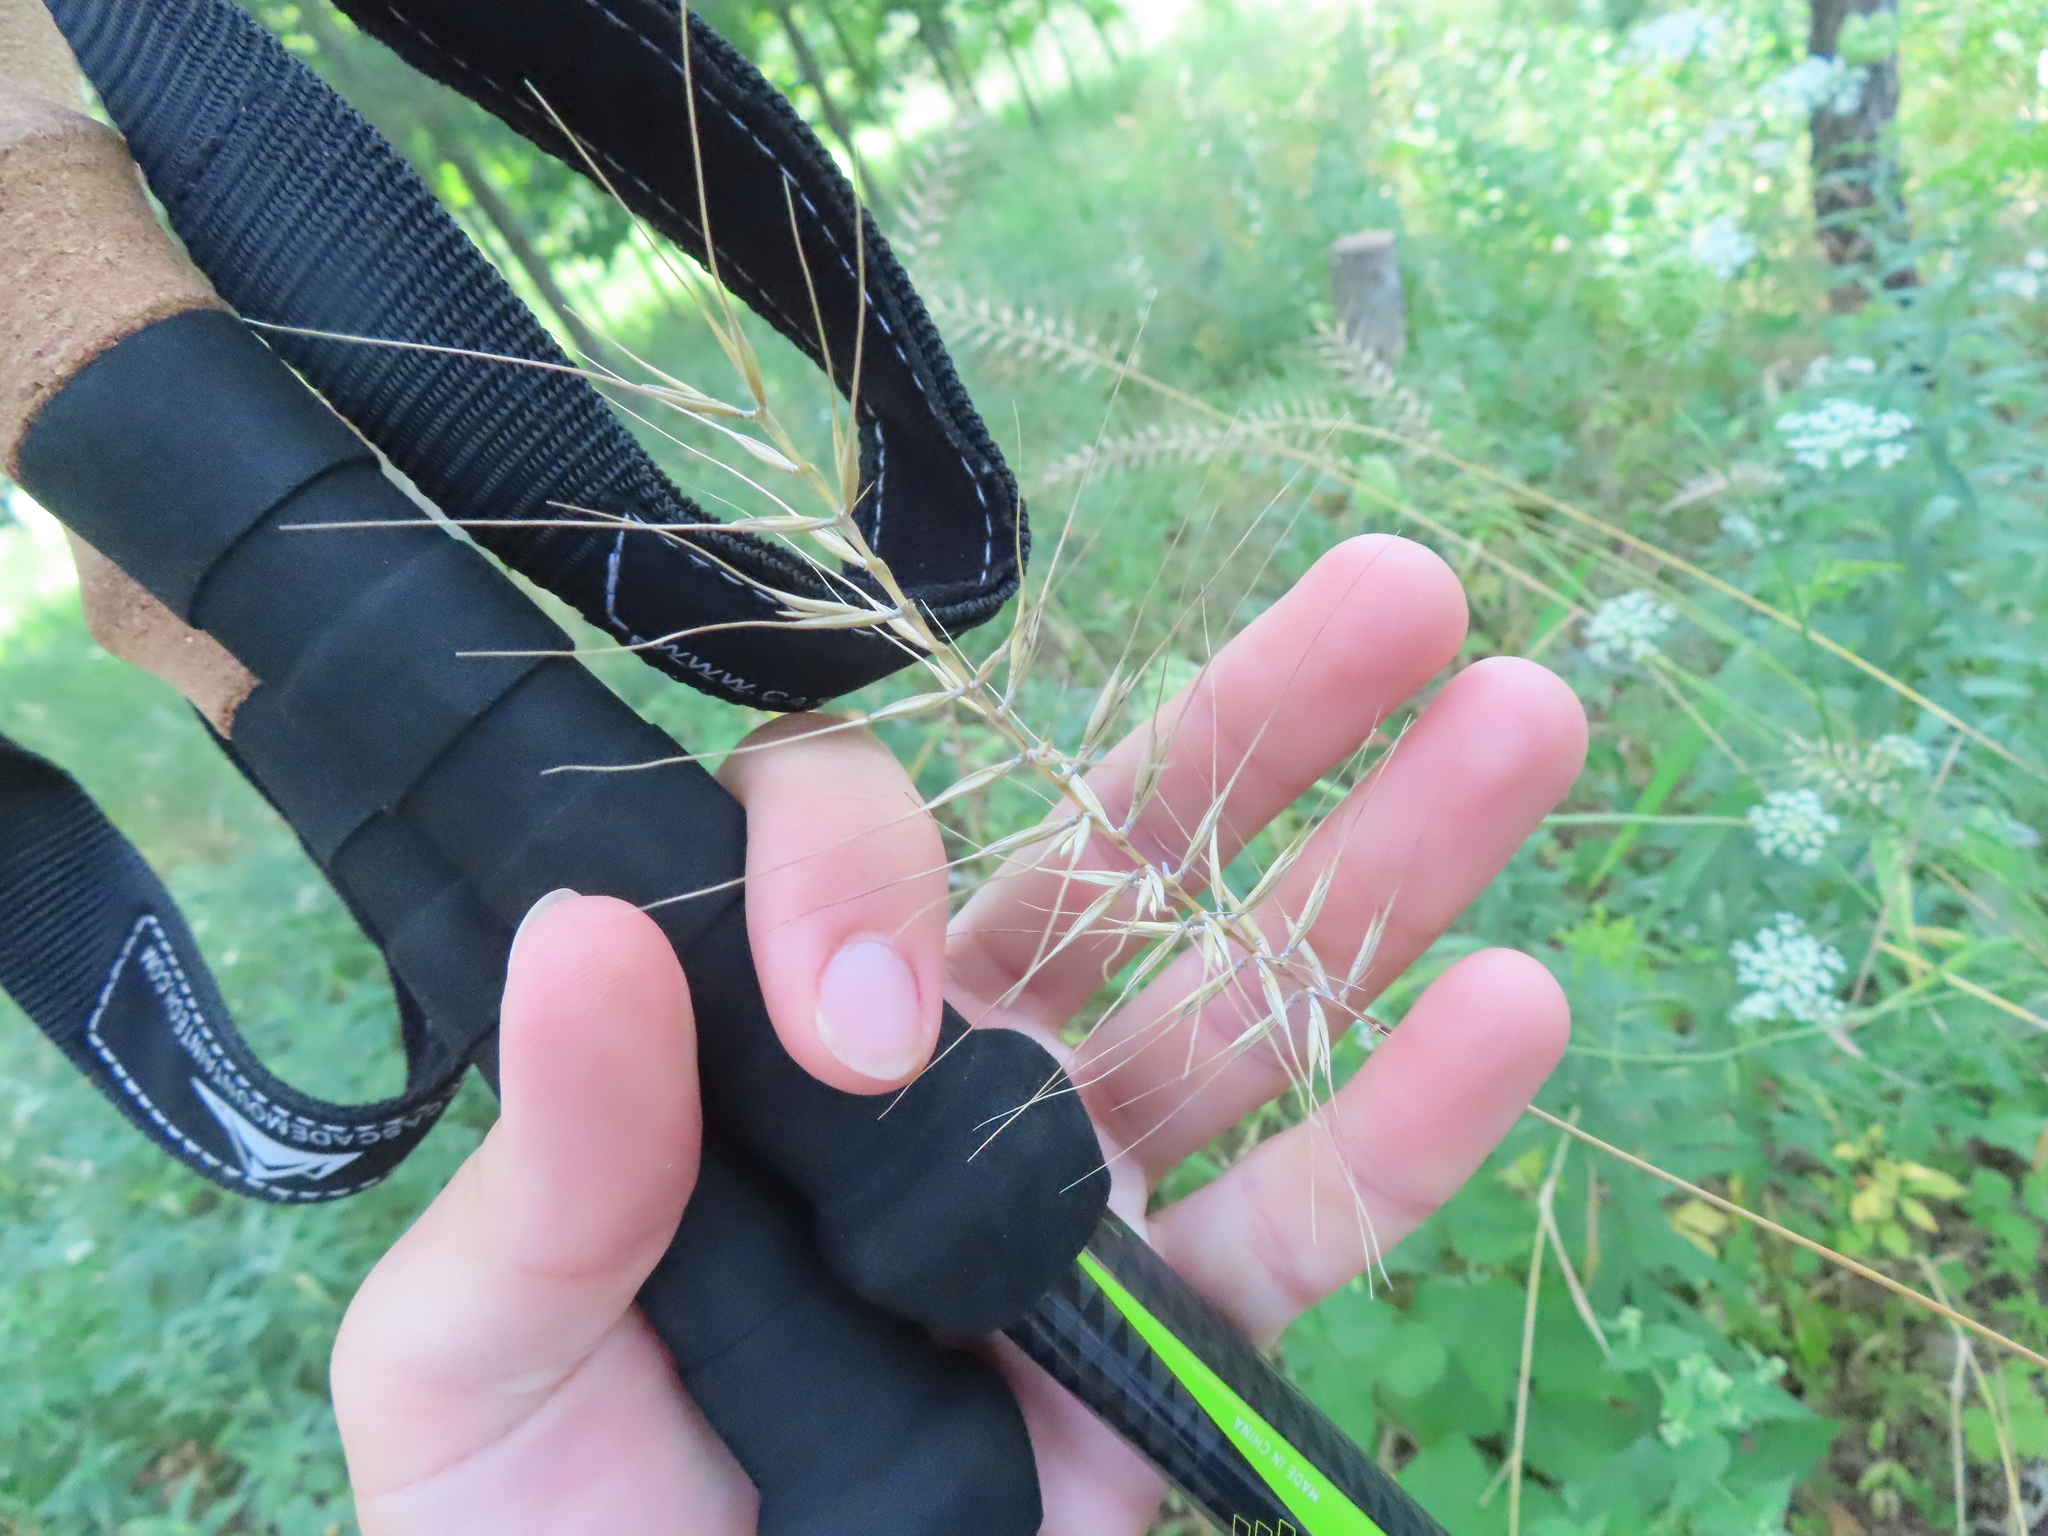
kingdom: Plantae
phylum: Tracheophyta
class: Liliopsida
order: Poales
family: Poaceae
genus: Elymus
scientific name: Elymus hystrix
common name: Bottlebrush grass
